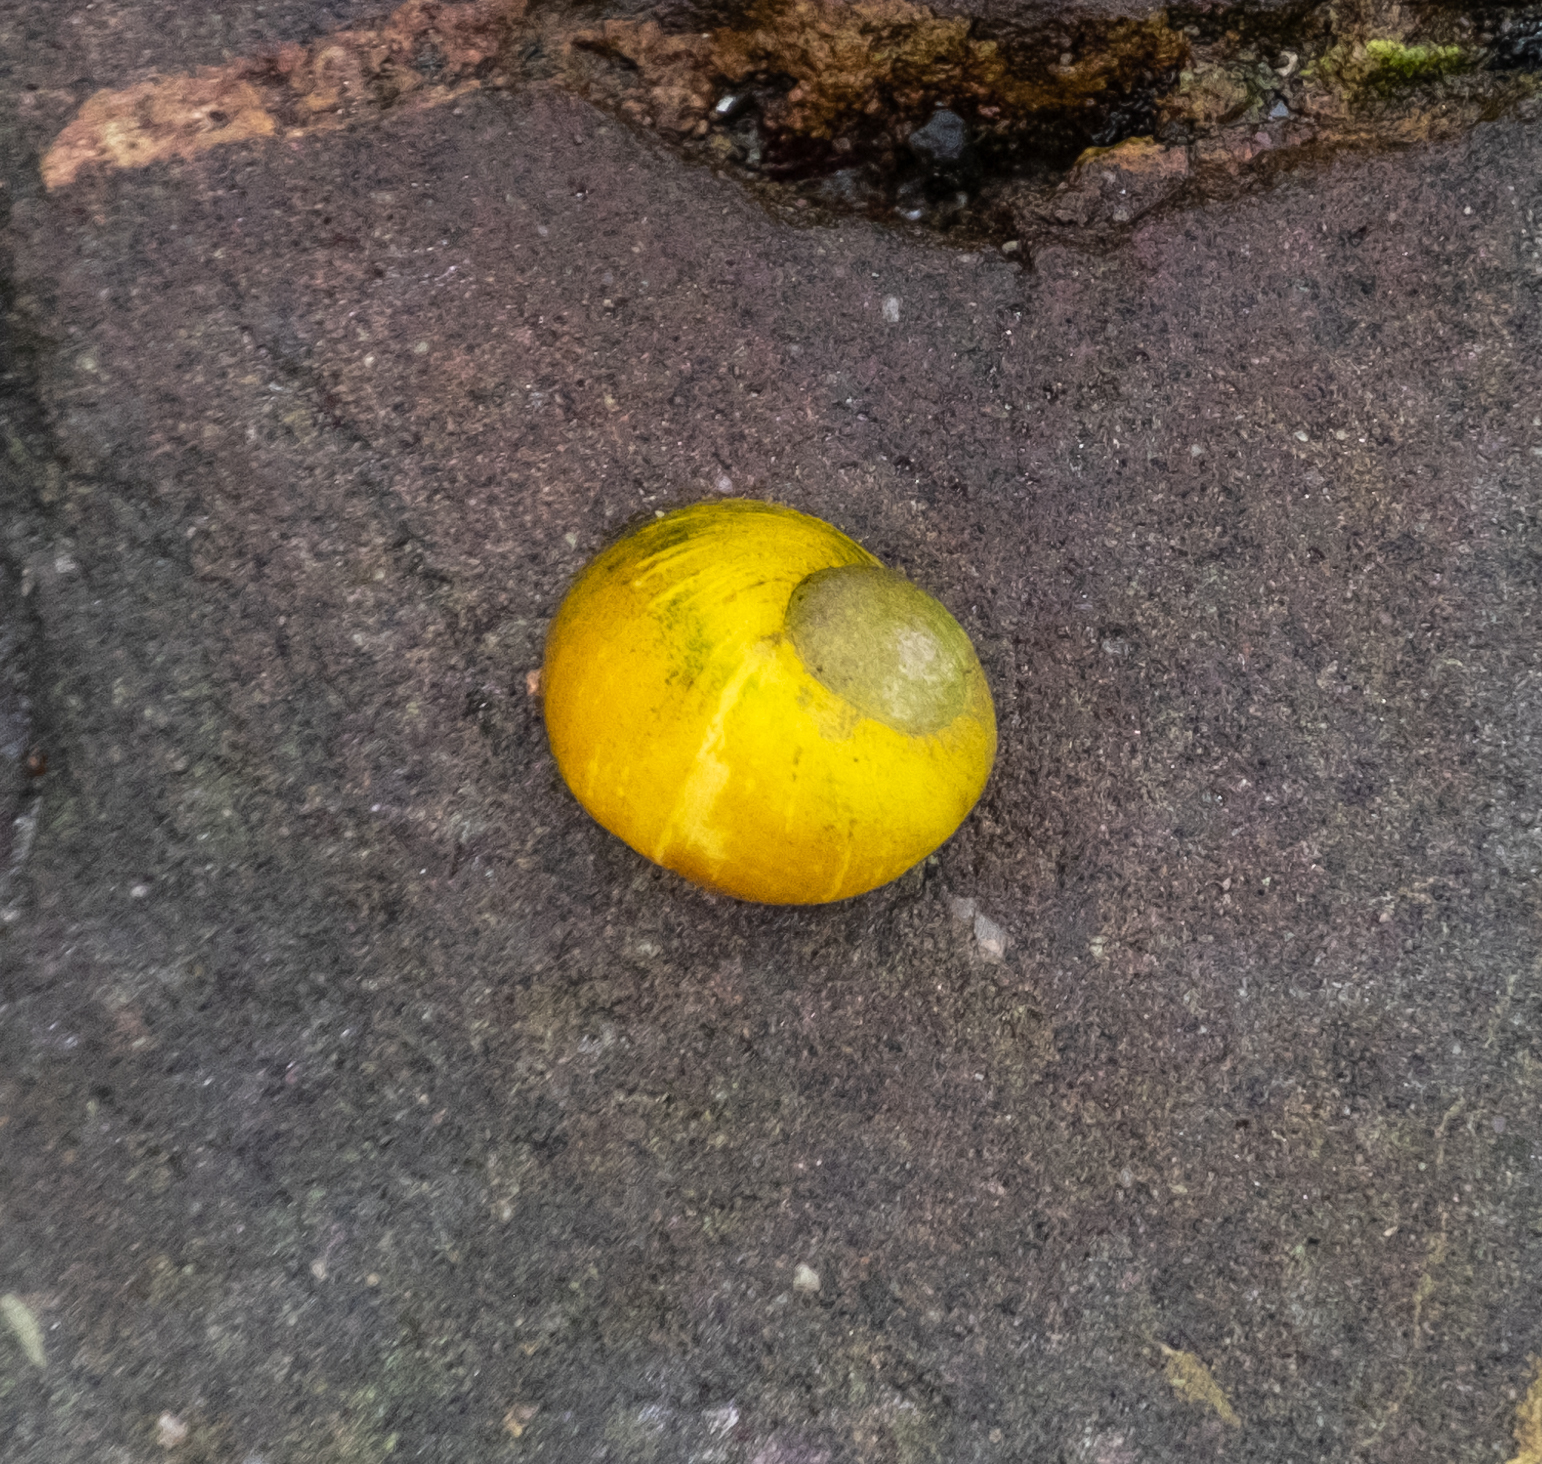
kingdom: Animalia
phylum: Mollusca
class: Gastropoda
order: Littorinimorpha
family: Littorinidae
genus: Littorina
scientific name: Littorina obtusata
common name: Flat periwinkle
